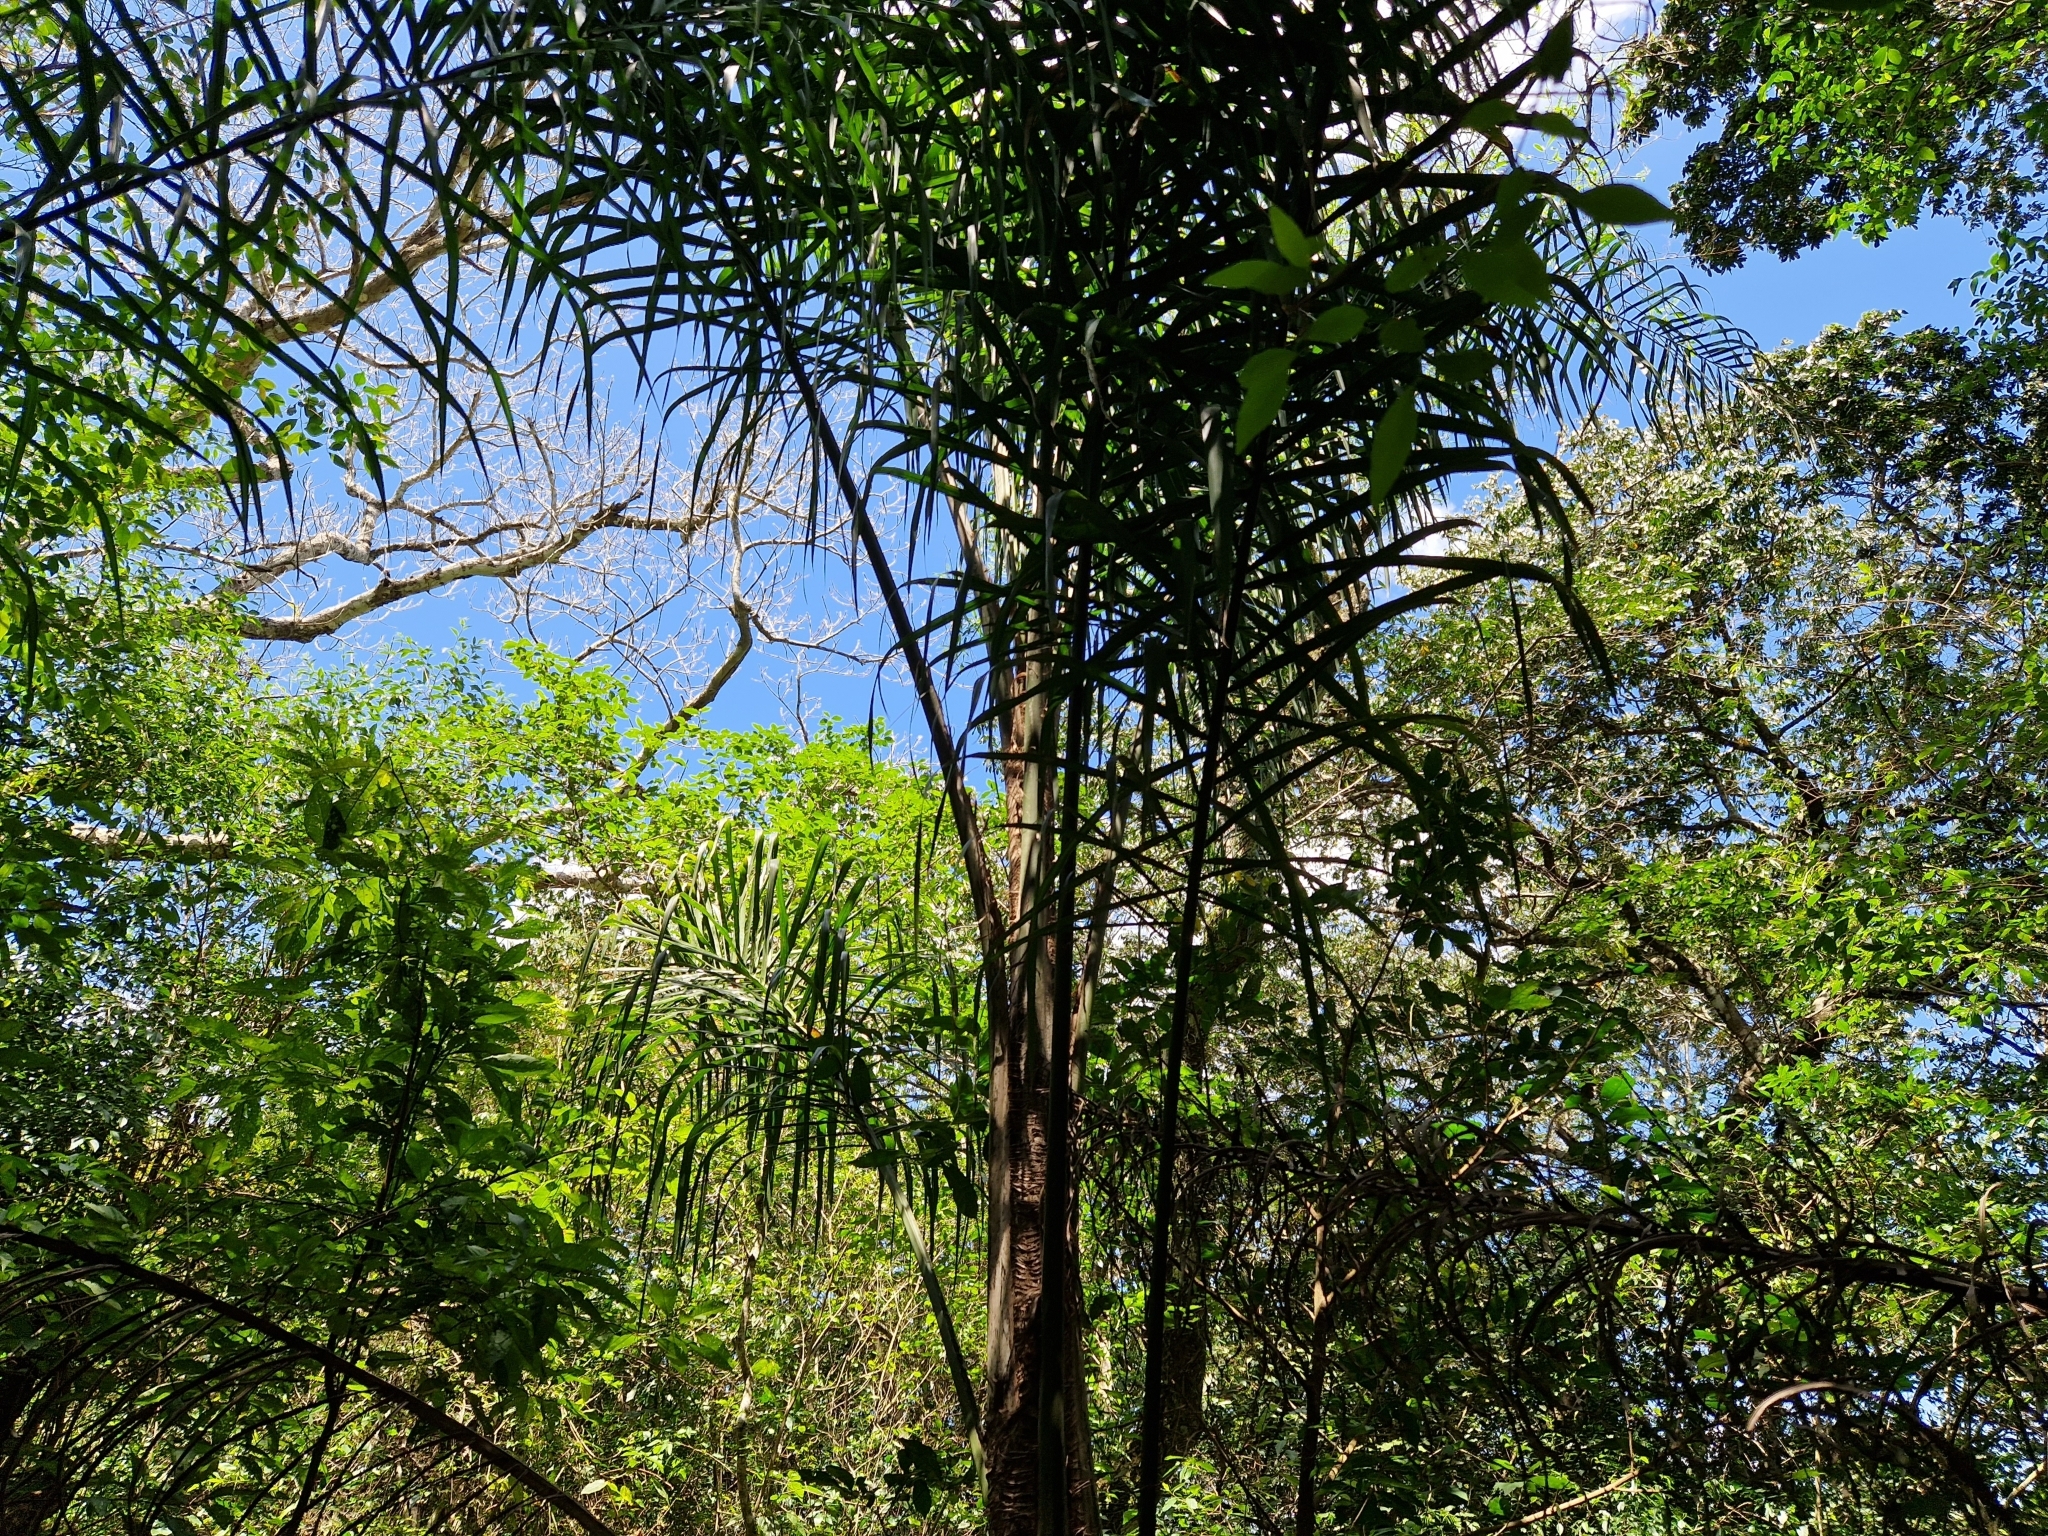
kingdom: Plantae
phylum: Tracheophyta
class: Liliopsida
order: Arecales
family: Arecaceae
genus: Syagrus
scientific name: Syagrus romanzoffiana
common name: Queen palm
